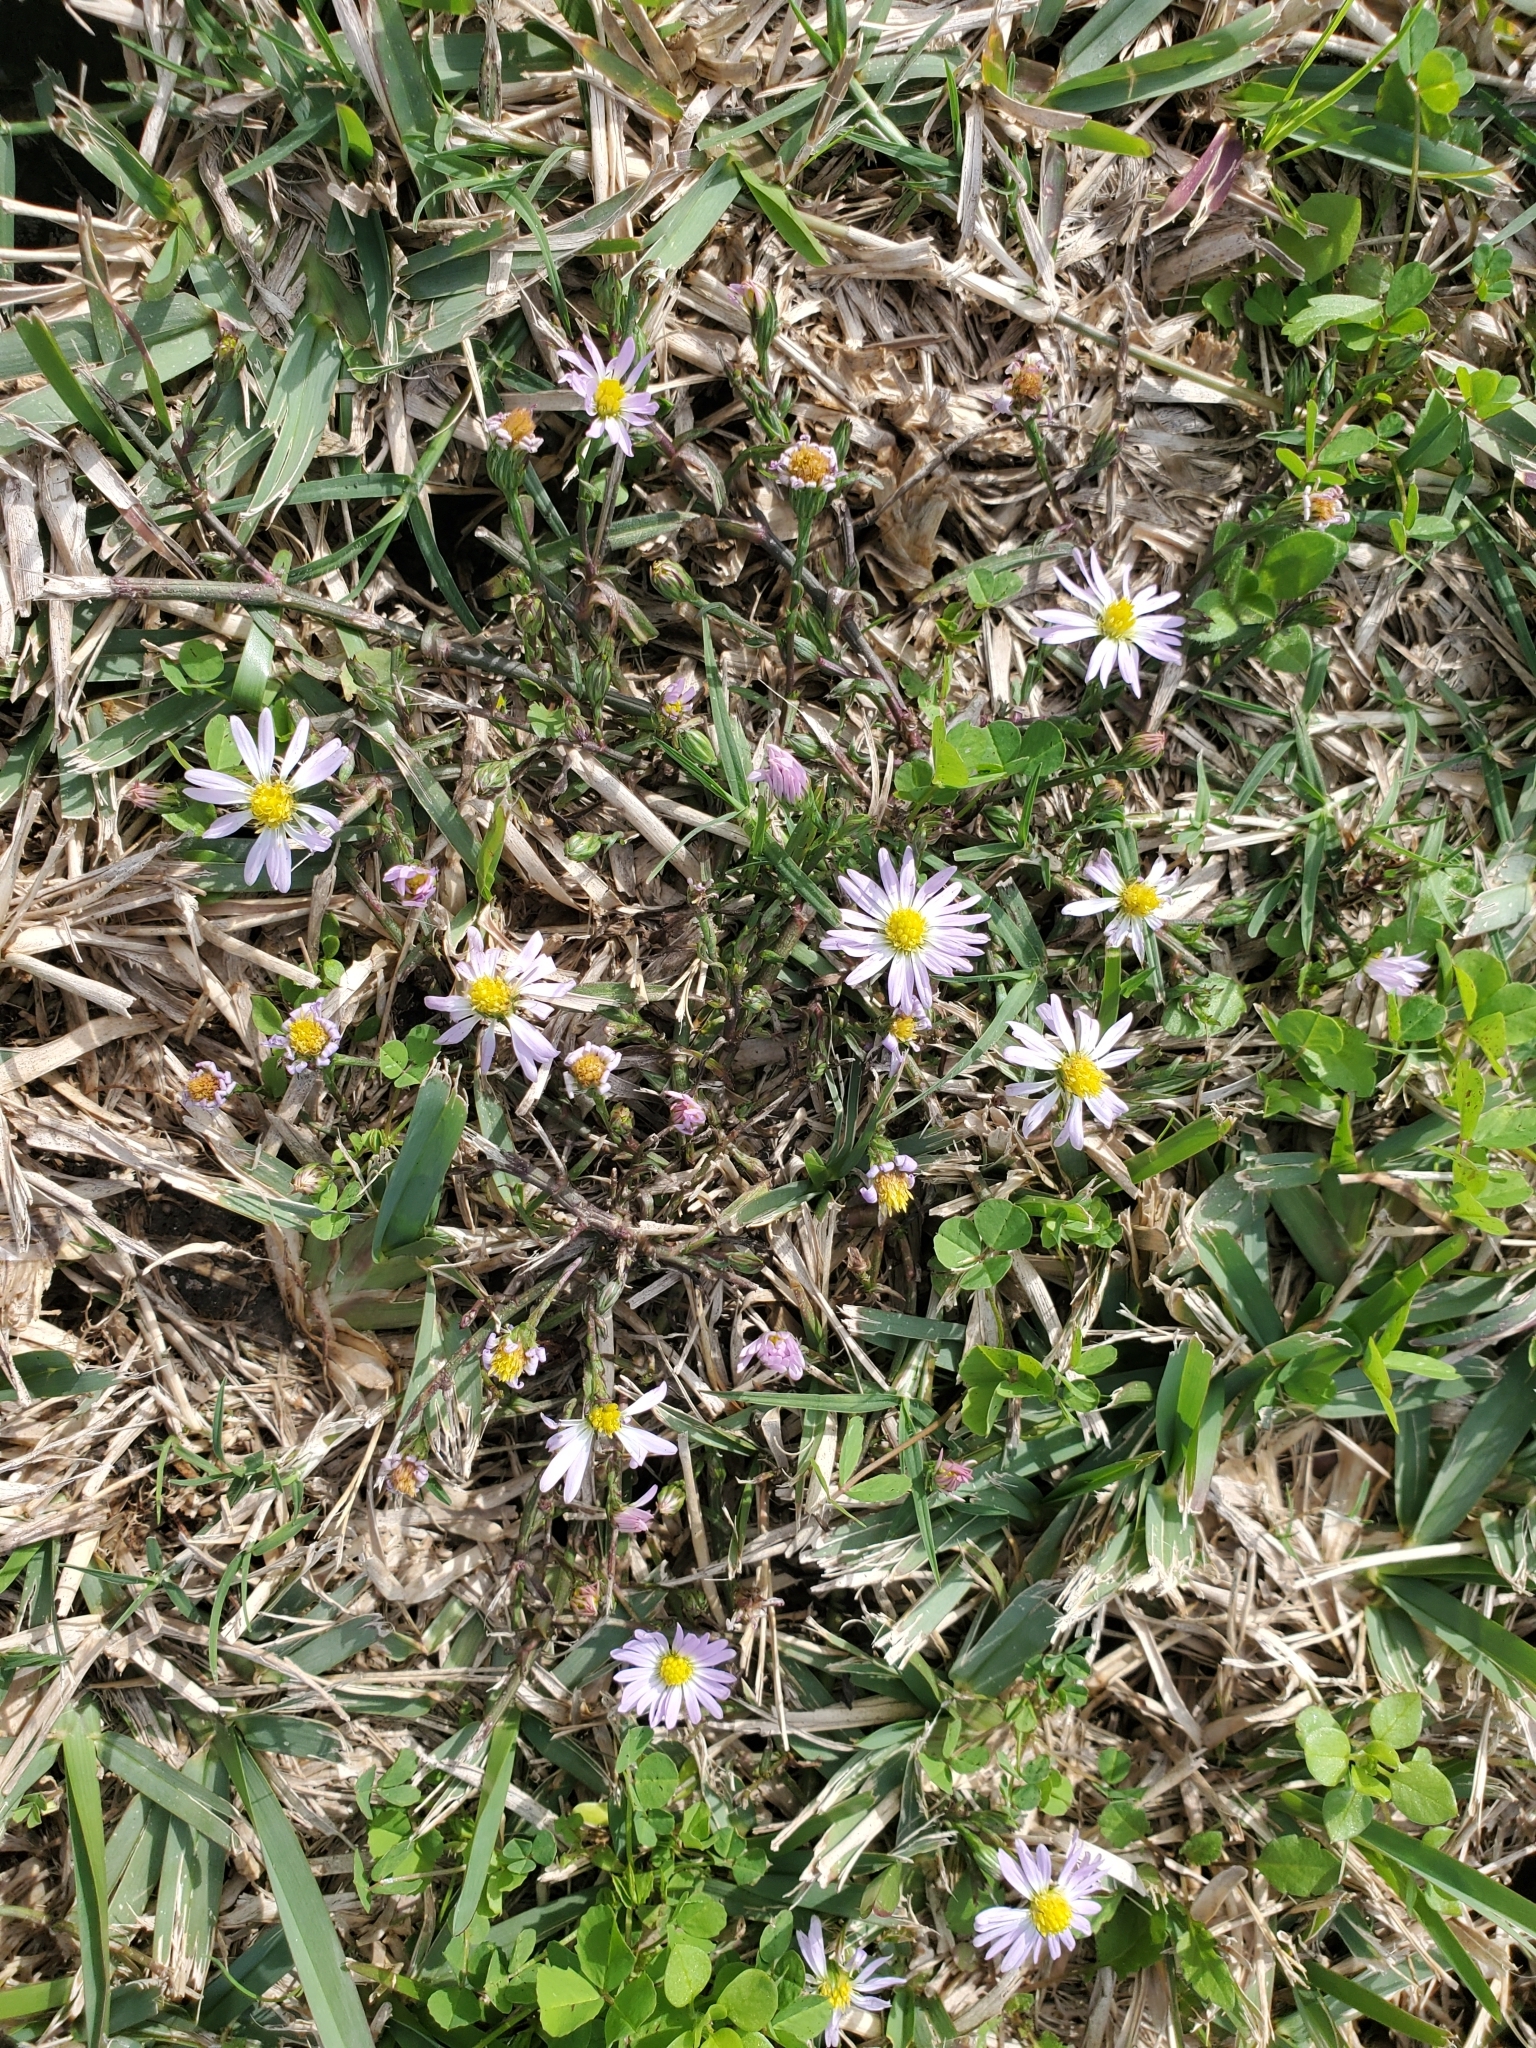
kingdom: Plantae
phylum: Tracheophyta
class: Magnoliopsida
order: Asterales
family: Asteraceae
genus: Symphyotrichum
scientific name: Symphyotrichum divaricatum
